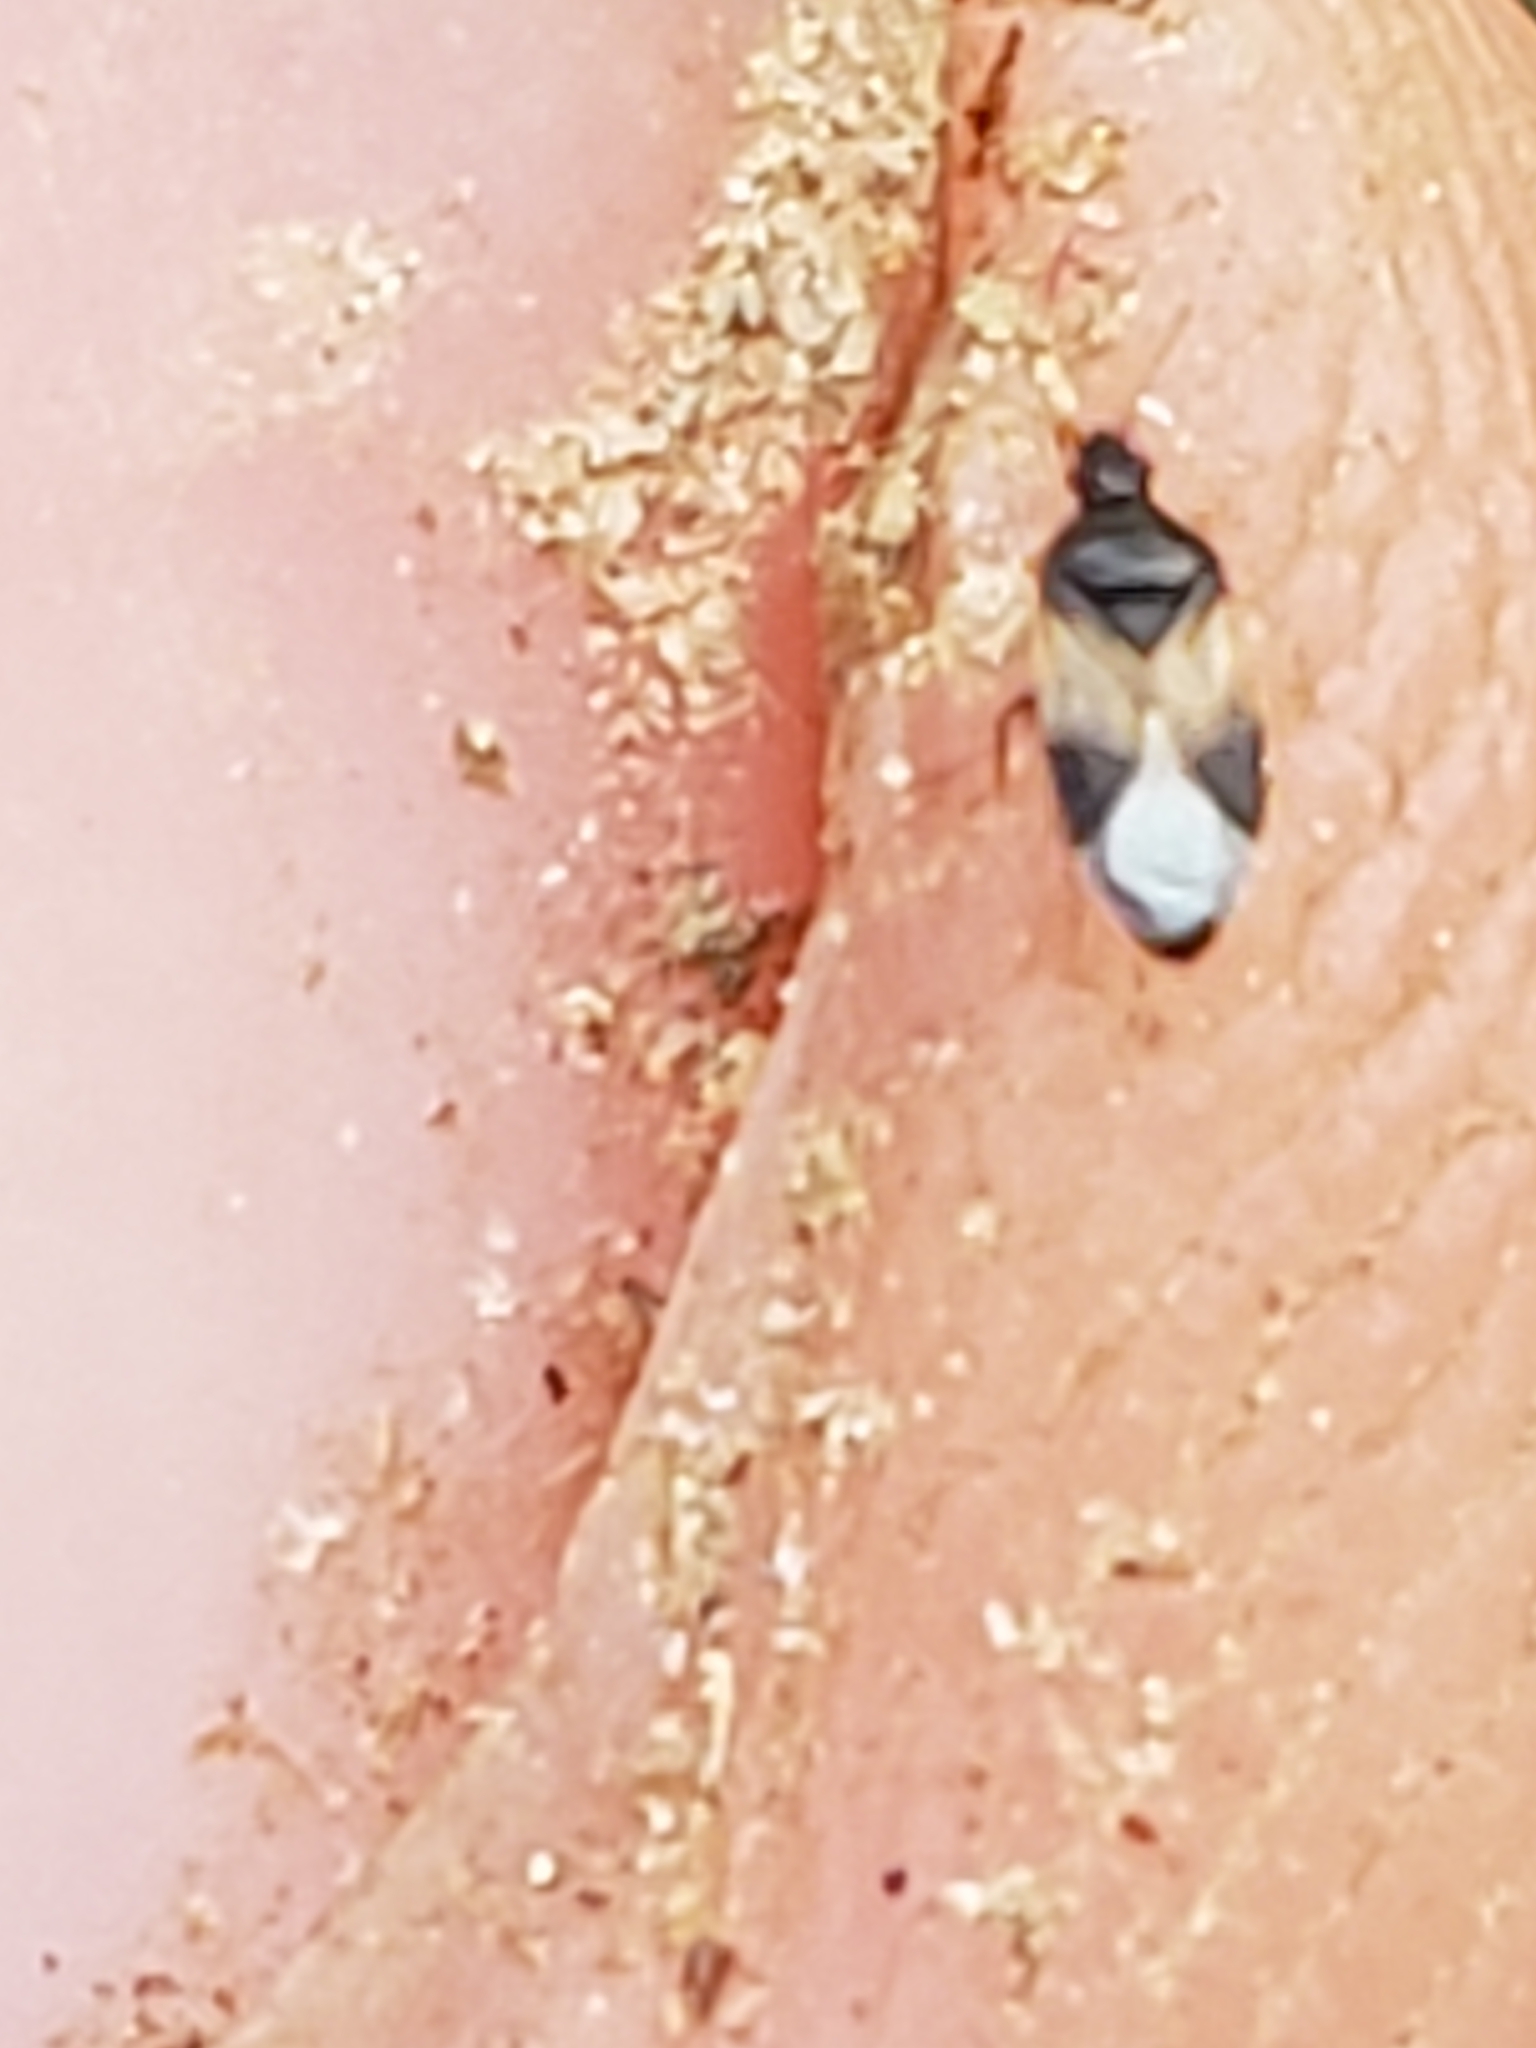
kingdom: Animalia
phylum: Arthropoda
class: Insecta
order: Hemiptera
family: Anthocoridae
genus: Orius
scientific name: Orius insidiosus
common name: Insidious flower bug
